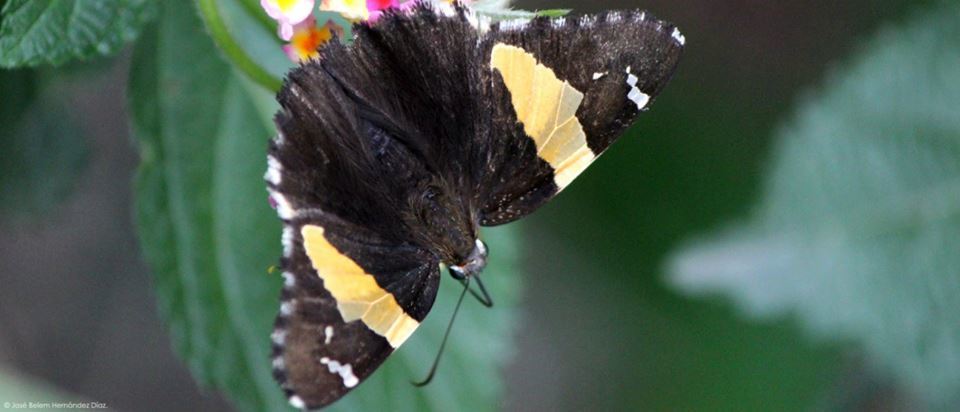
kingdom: Animalia
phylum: Arthropoda
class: Arachnida
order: Scorpiones
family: Bothriuridae
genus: Telegonus
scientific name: Telegonus cellus
